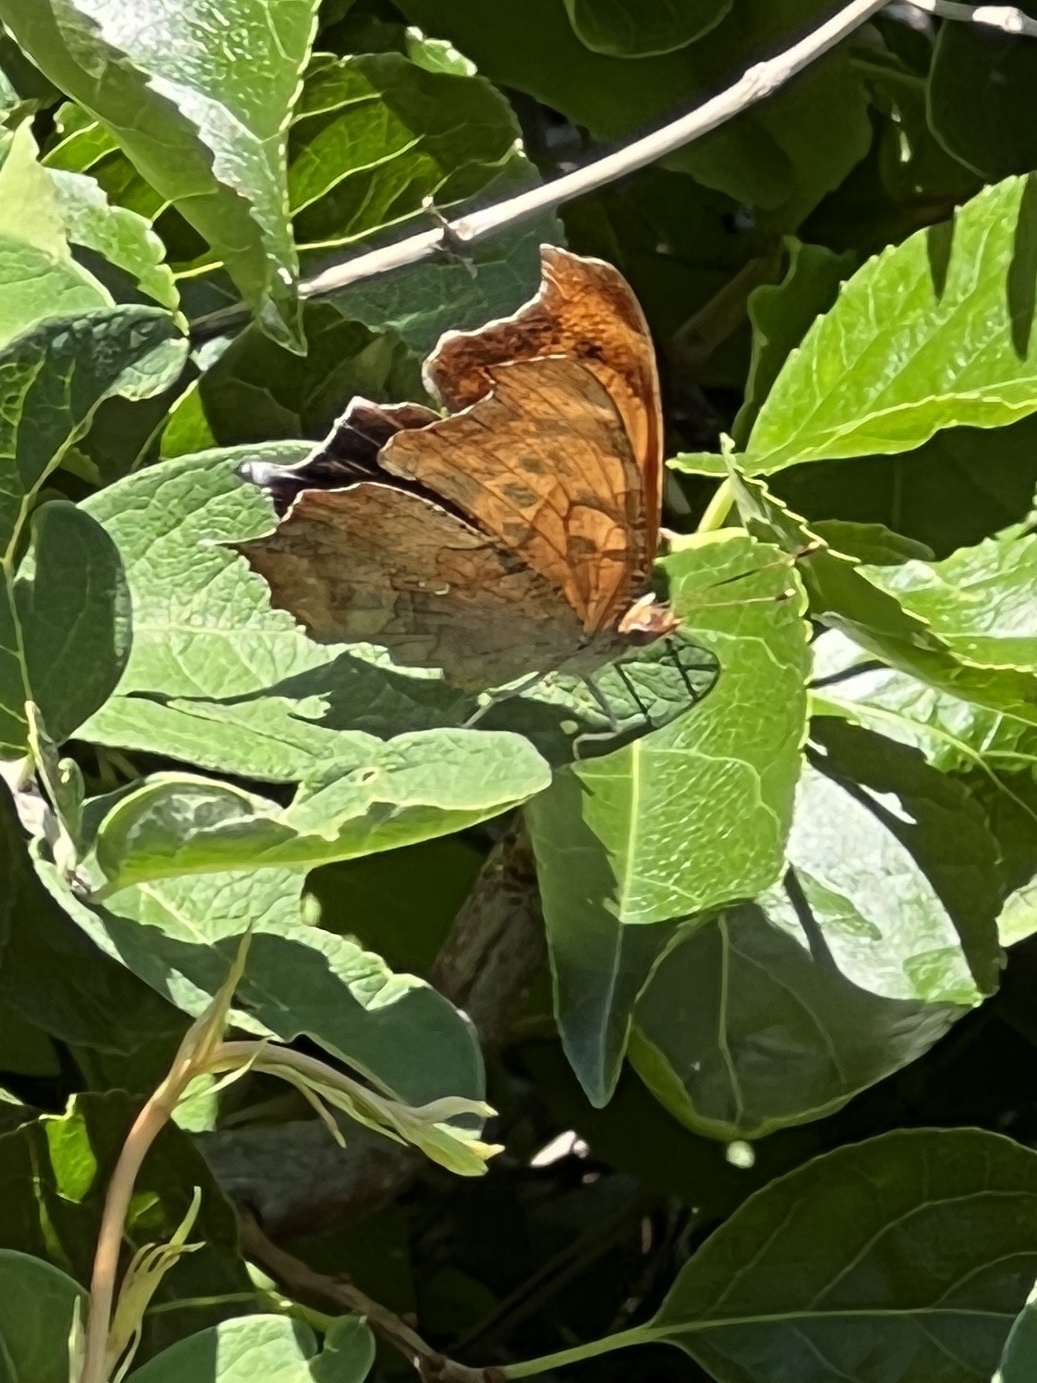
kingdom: Animalia
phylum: Arthropoda
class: Insecta
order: Lepidoptera
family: Nymphalidae
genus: Polygonia
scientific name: Polygonia interrogationis
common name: Question mark
